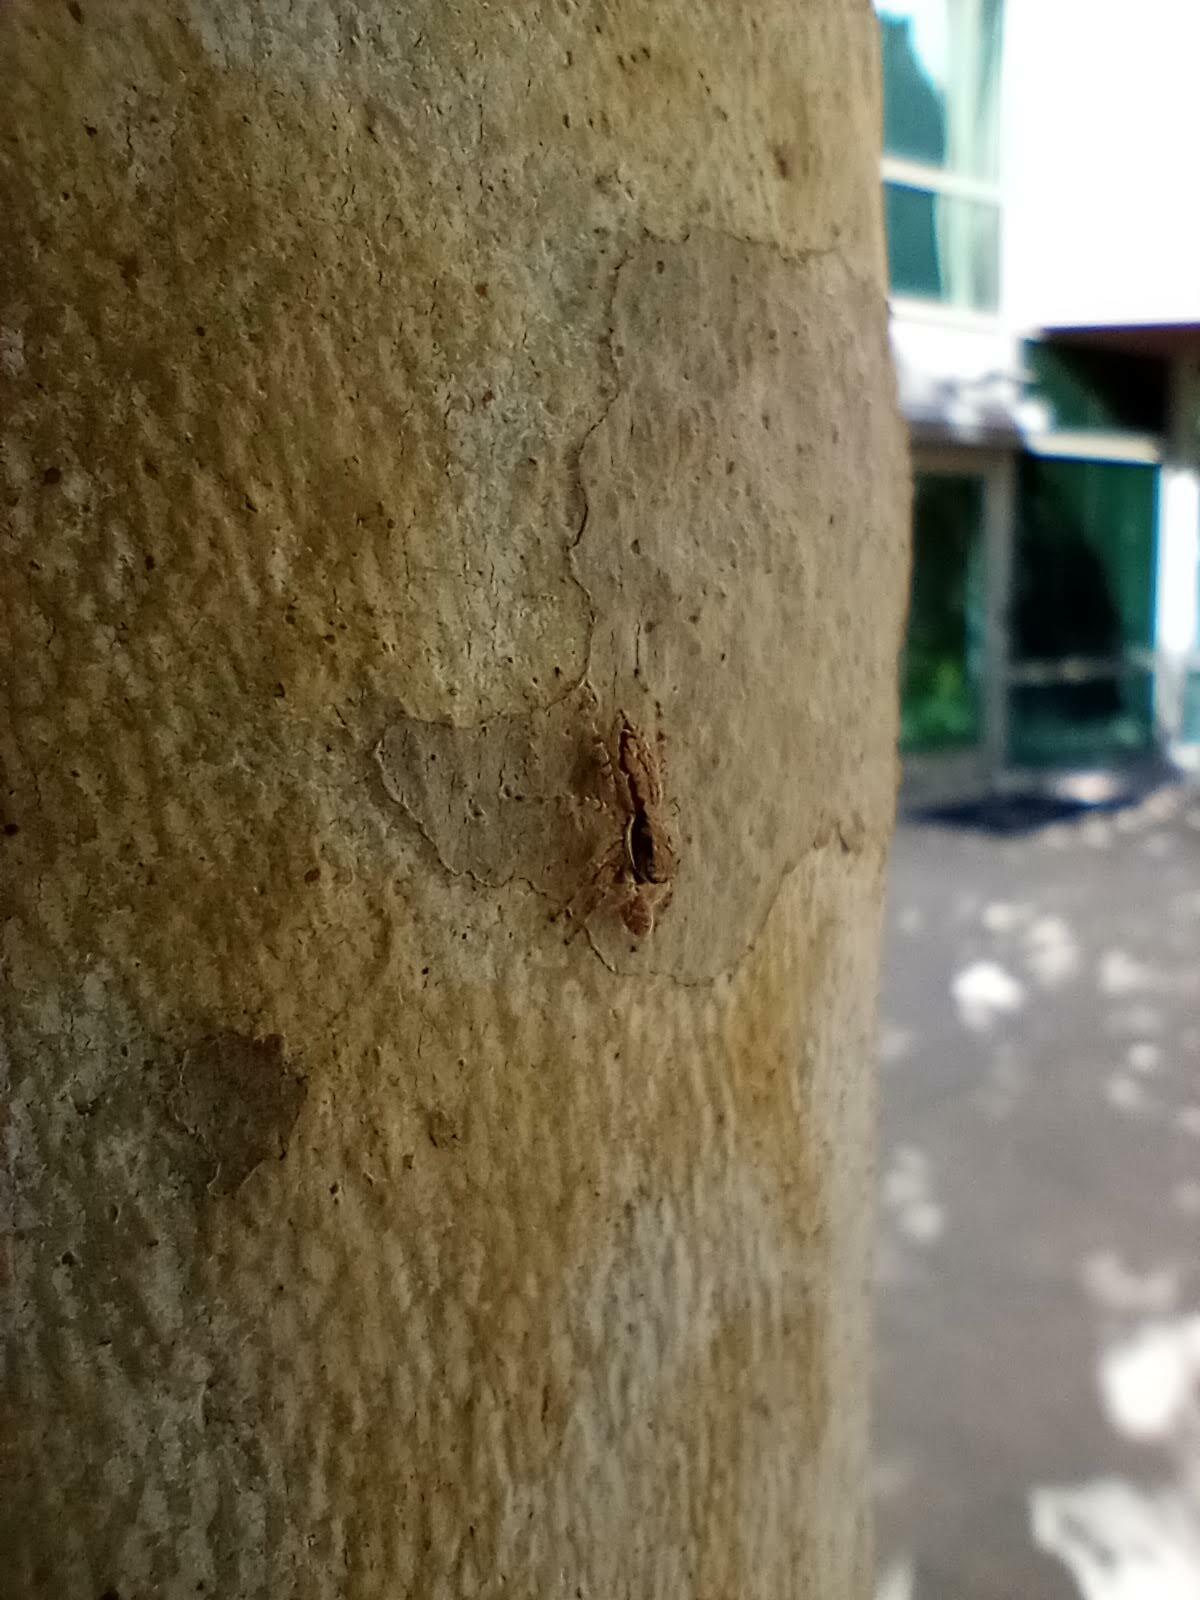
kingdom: Animalia
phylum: Arthropoda
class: Arachnida
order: Araneae
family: Salticidae
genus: Menemerus
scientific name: Menemerus bivittatus
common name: Gray wall jumper
